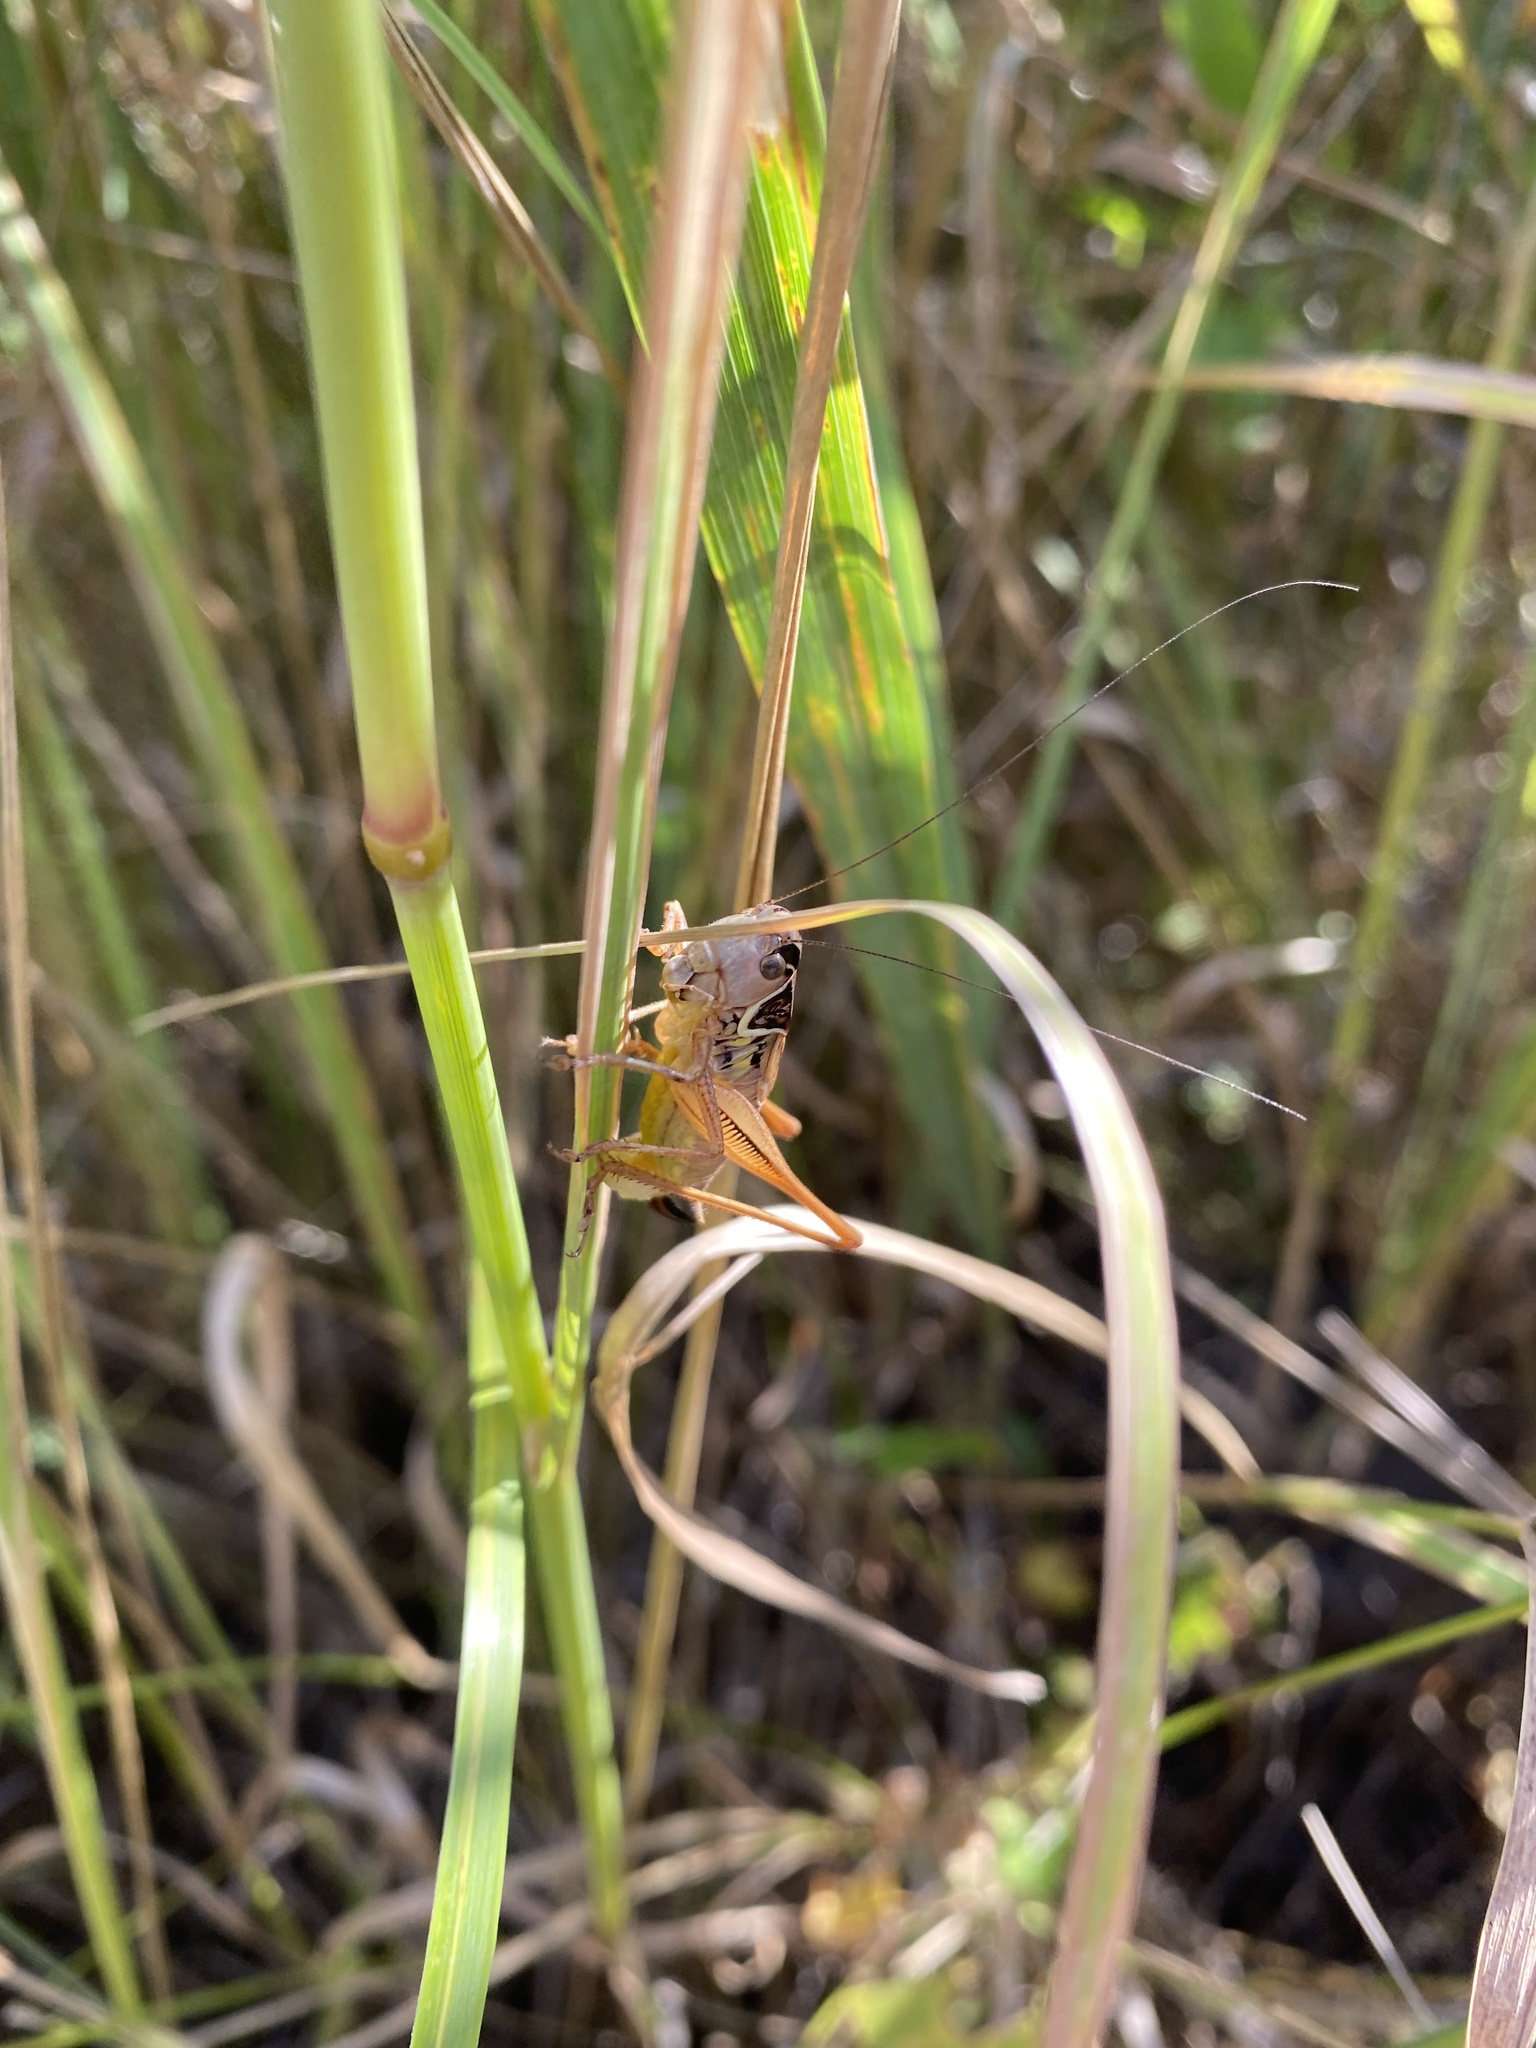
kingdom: Animalia
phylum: Arthropoda
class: Insecta
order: Orthoptera
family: Tettigoniidae
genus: Roeseliana
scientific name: Roeseliana roeselii
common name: Roesel's bush cricket
